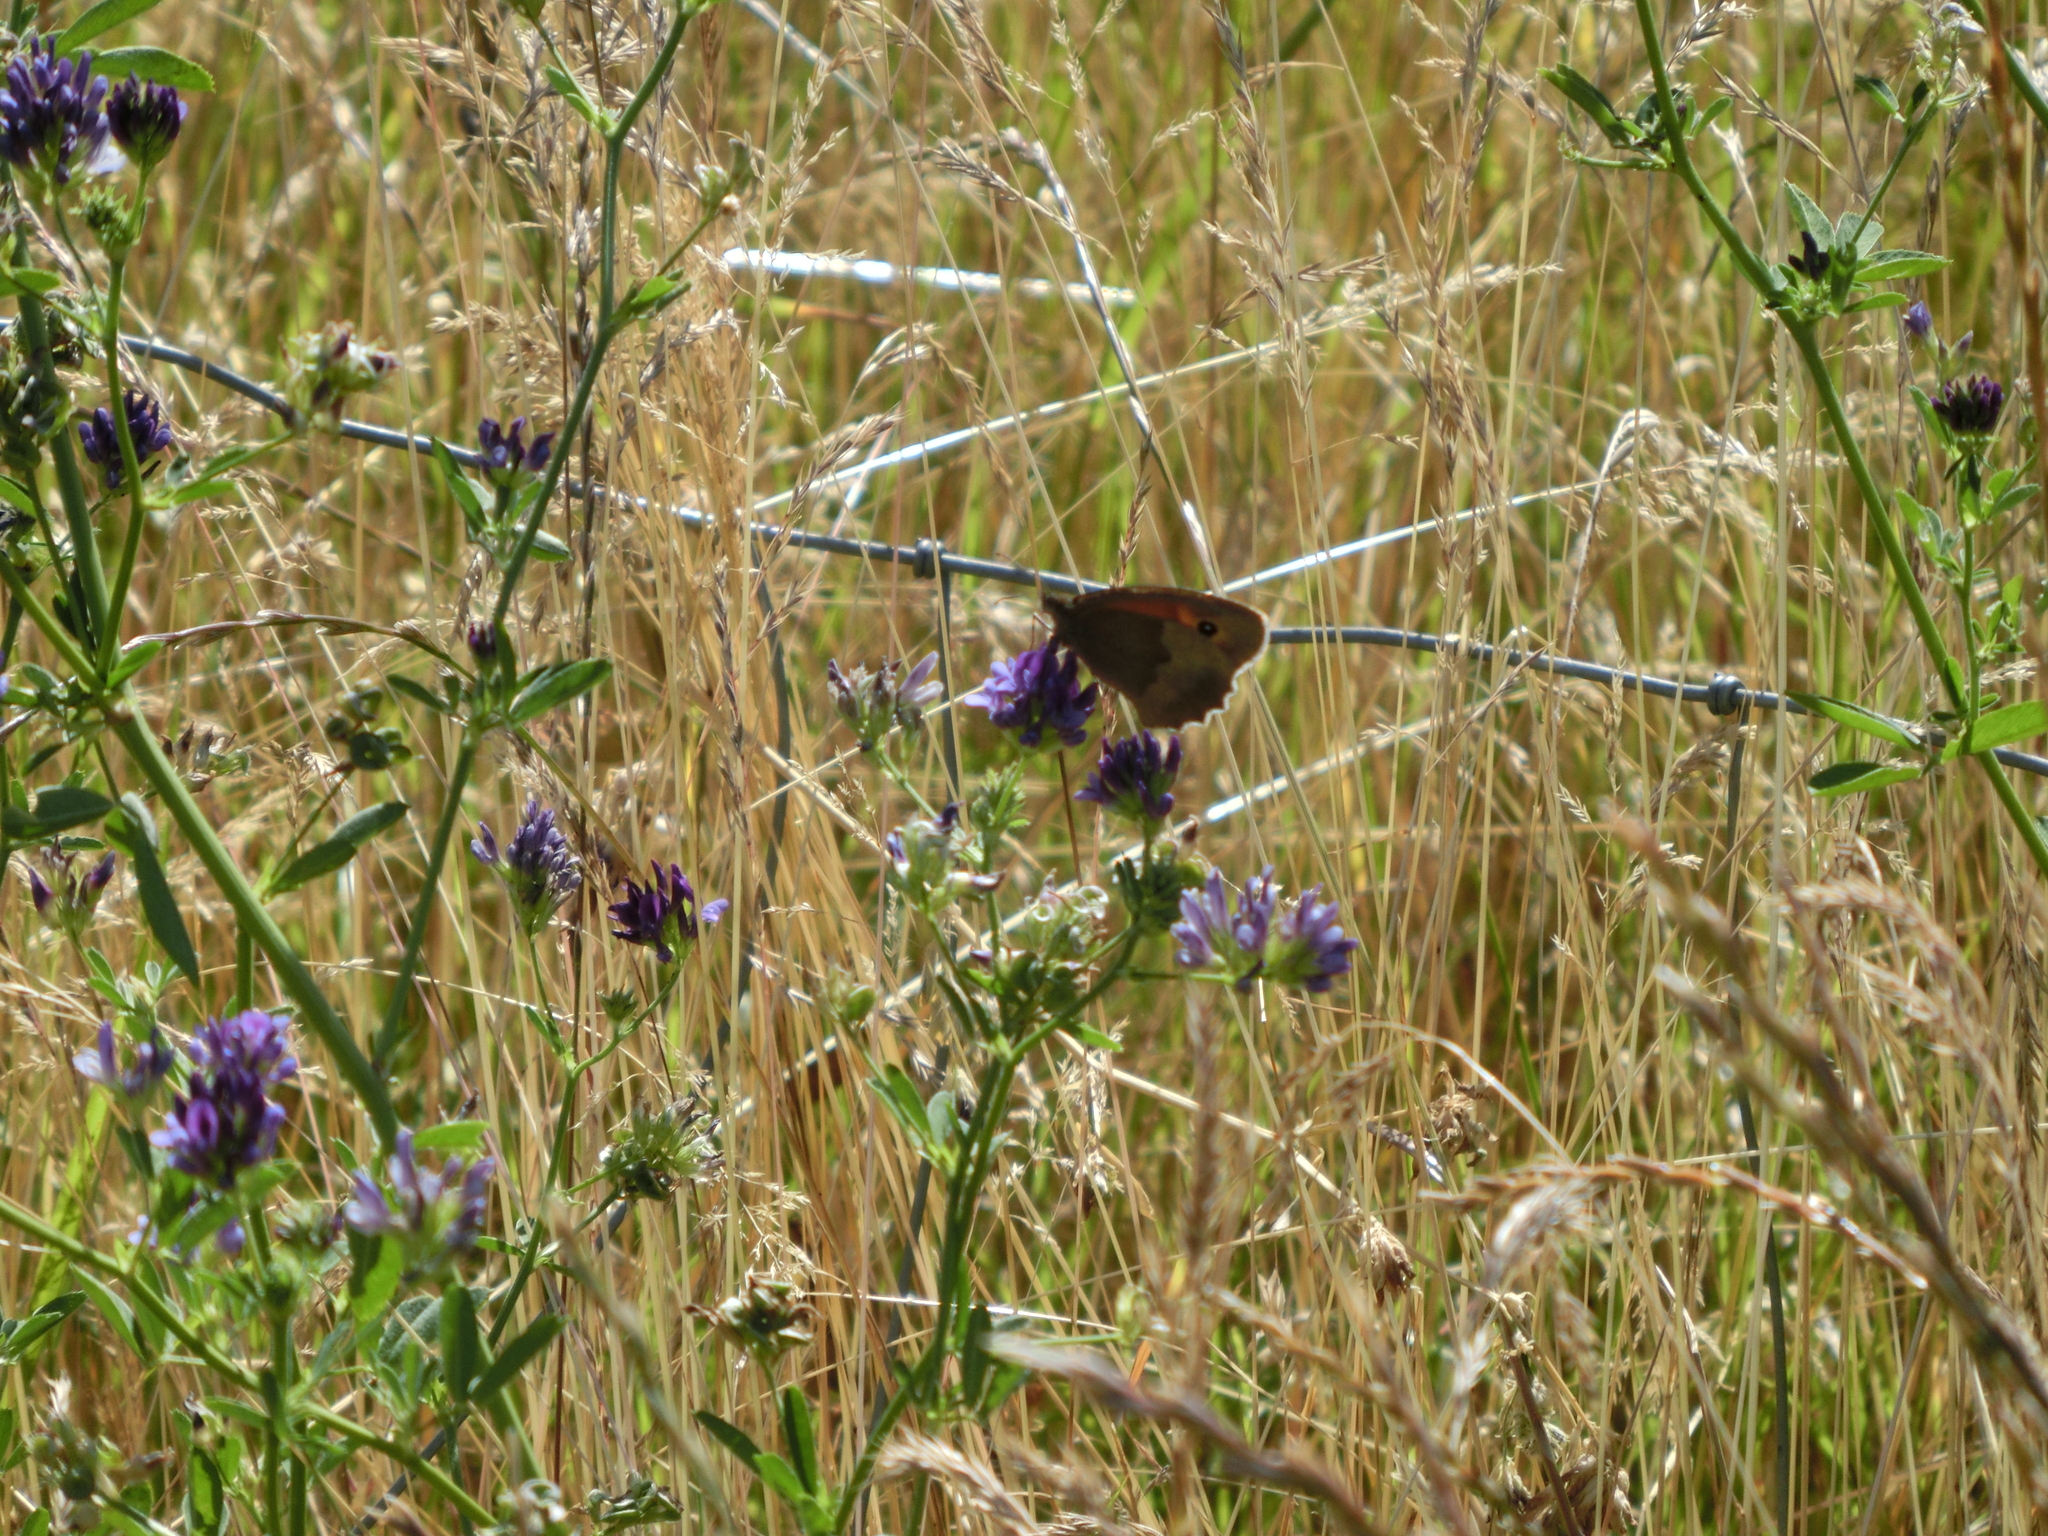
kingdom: Animalia
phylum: Arthropoda
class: Insecta
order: Lepidoptera
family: Nymphalidae
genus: Maniola
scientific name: Maniola jurtina
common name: Meadow brown
